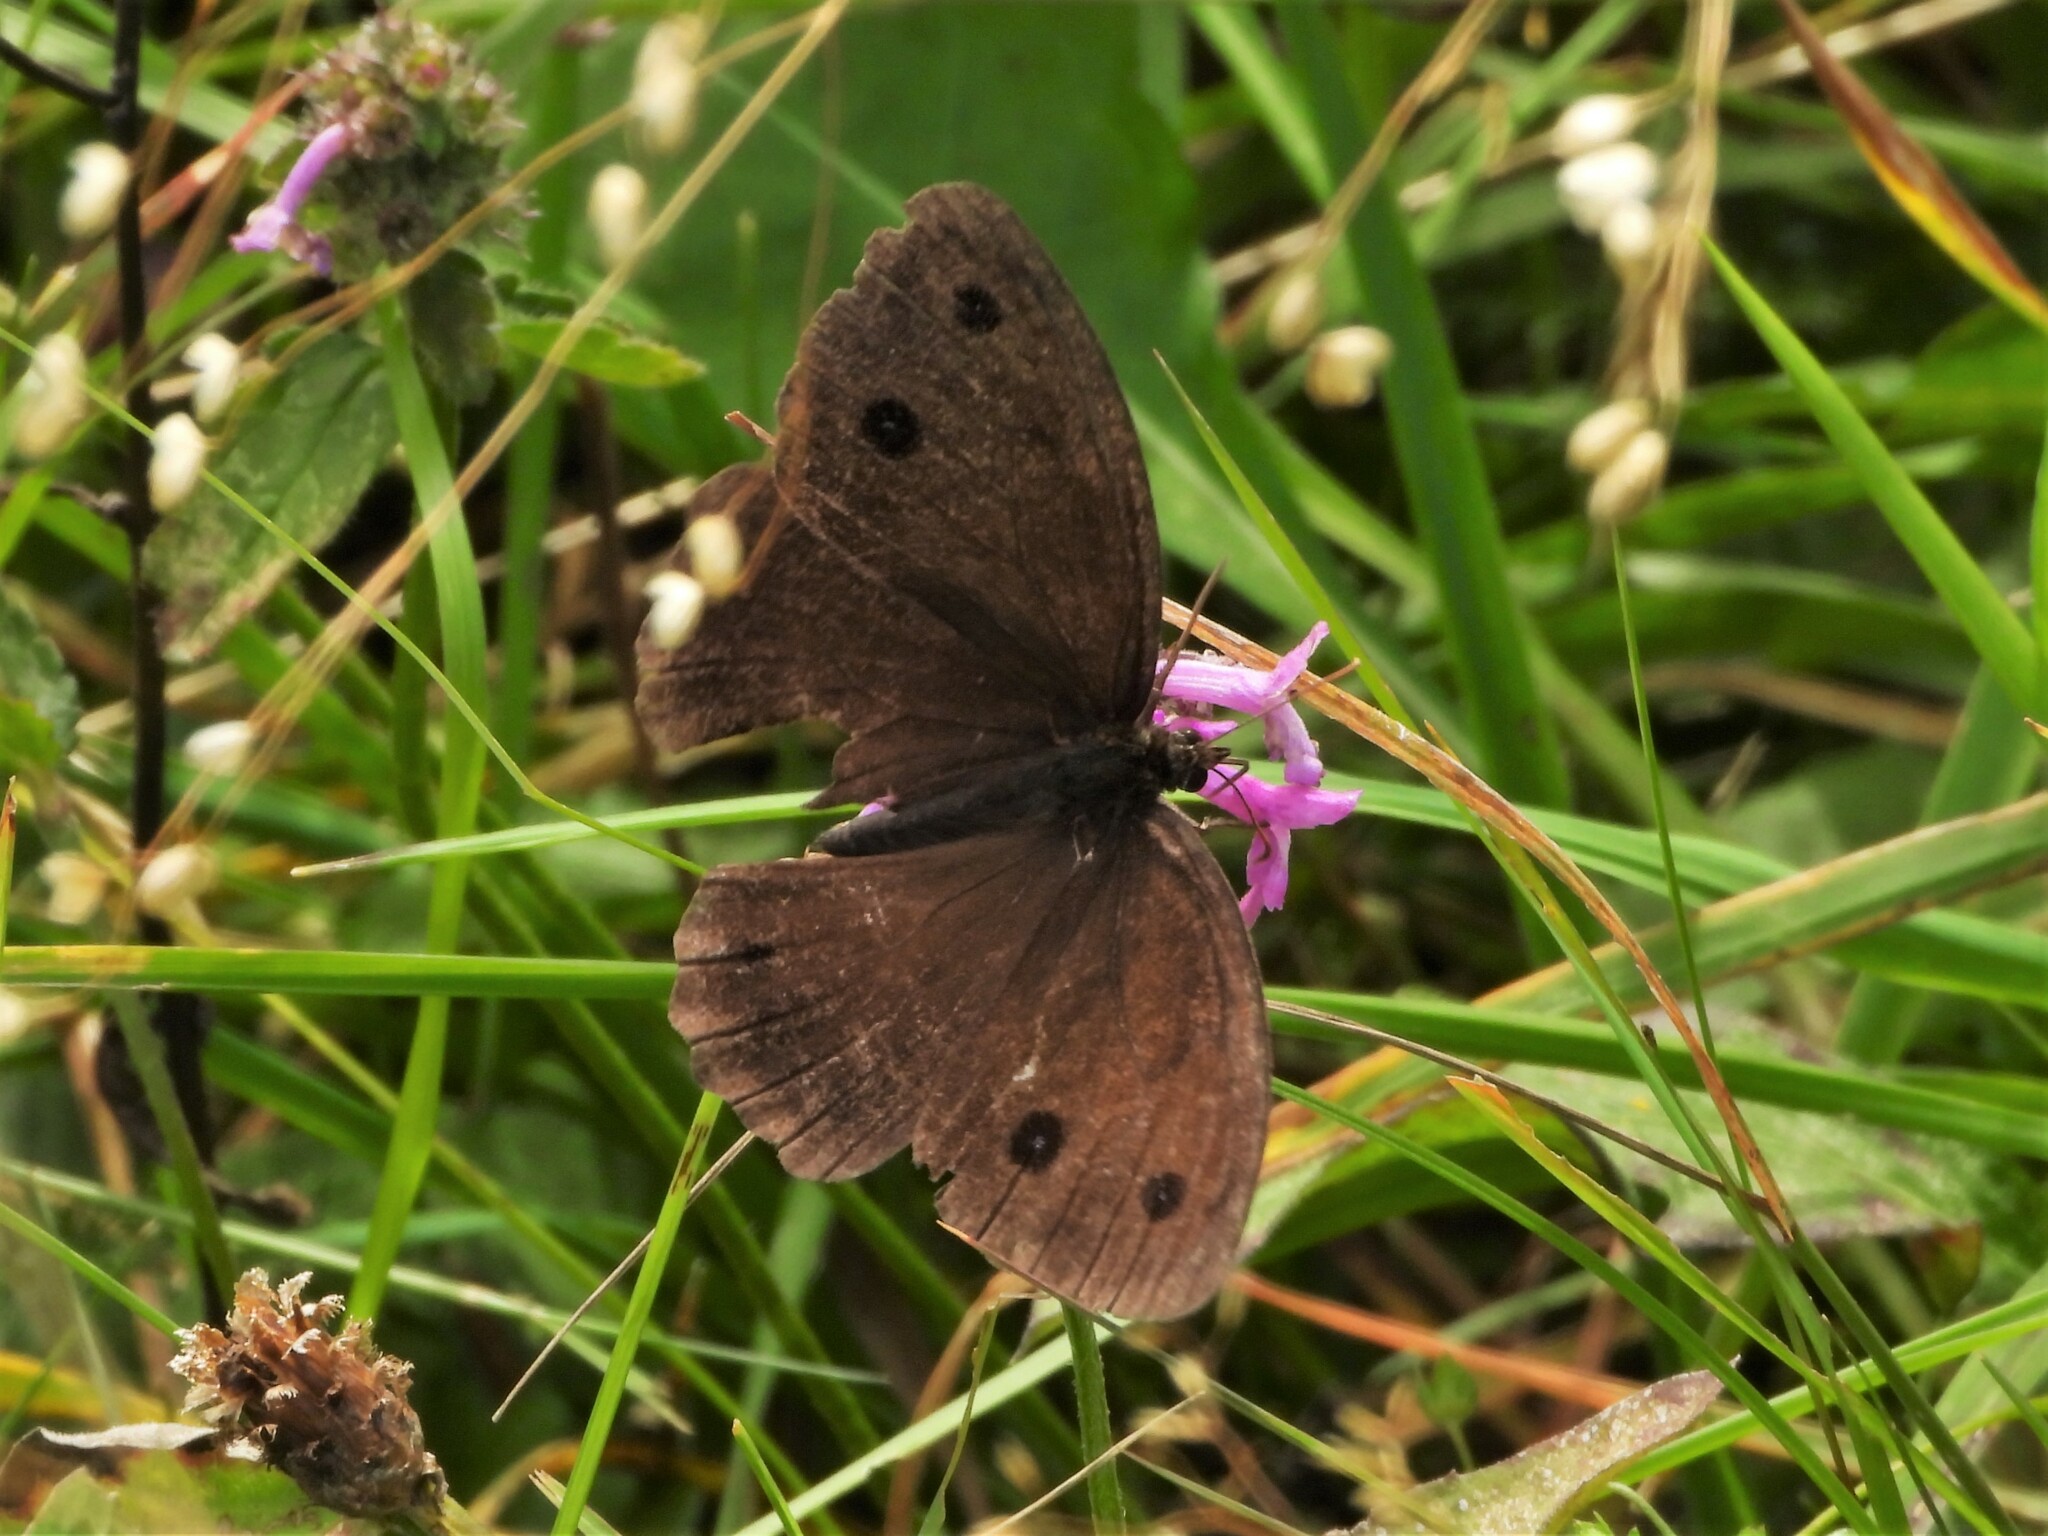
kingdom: Animalia
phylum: Arthropoda
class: Insecta
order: Lepidoptera
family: Nymphalidae
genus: Minois
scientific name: Minois dryas
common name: Dryad
